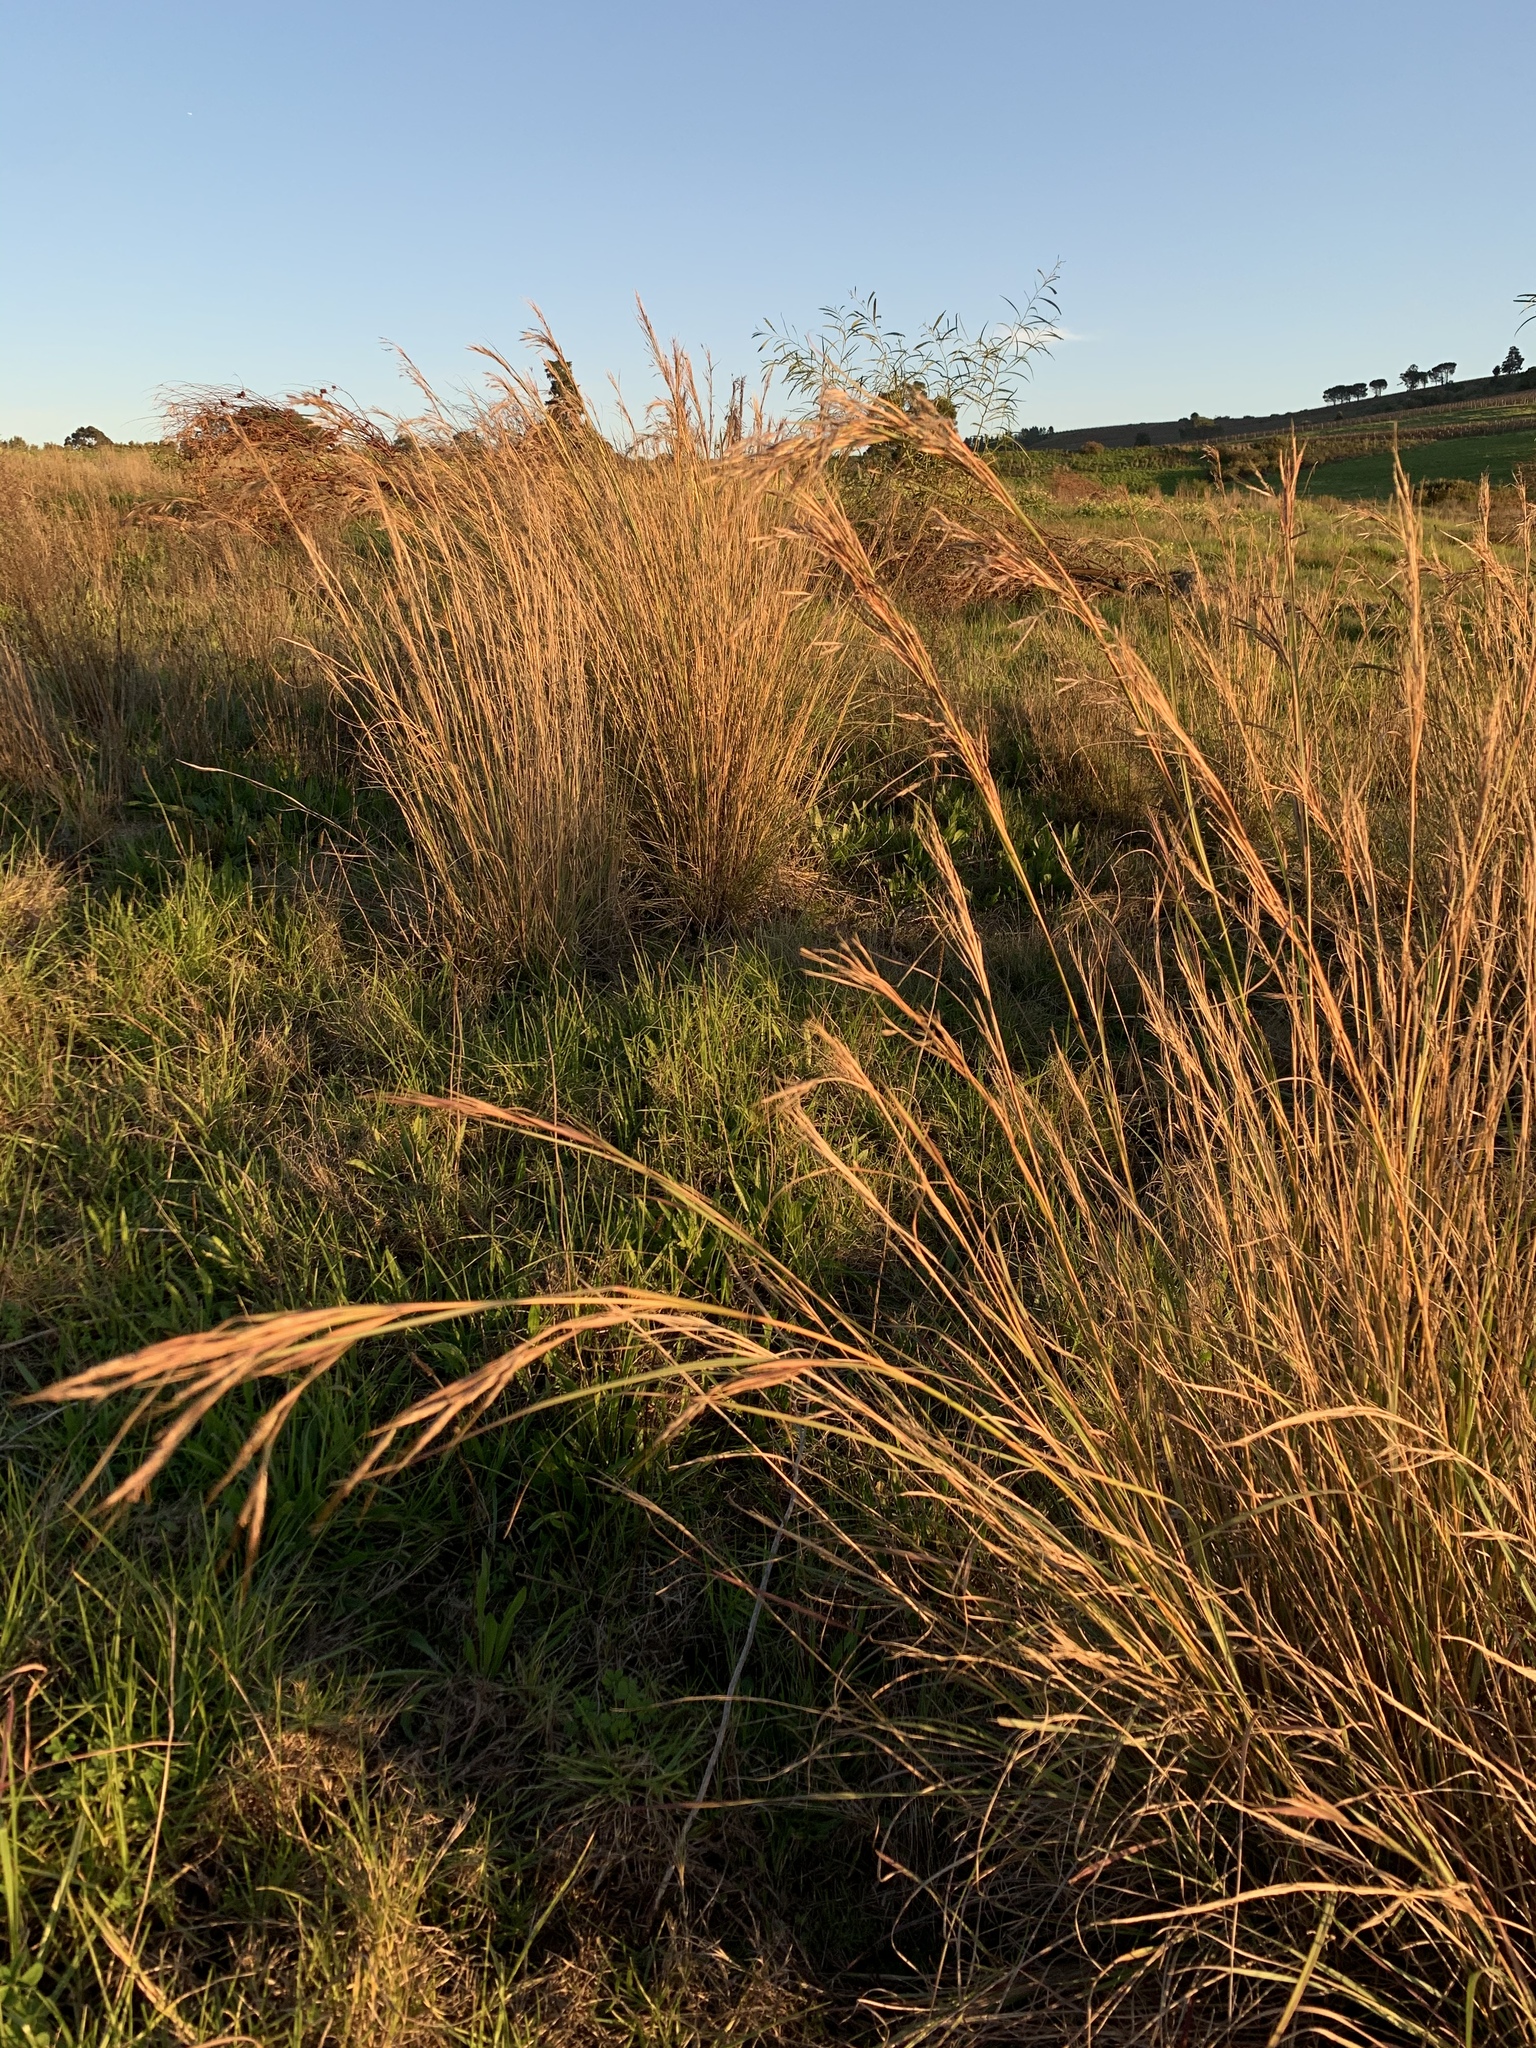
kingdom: Plantae
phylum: Tracheophyta
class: Liliopsida
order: Poales
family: Poaceae
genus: Hyparrhenia
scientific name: Hyparrhenia hirta
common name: Thatching grass
